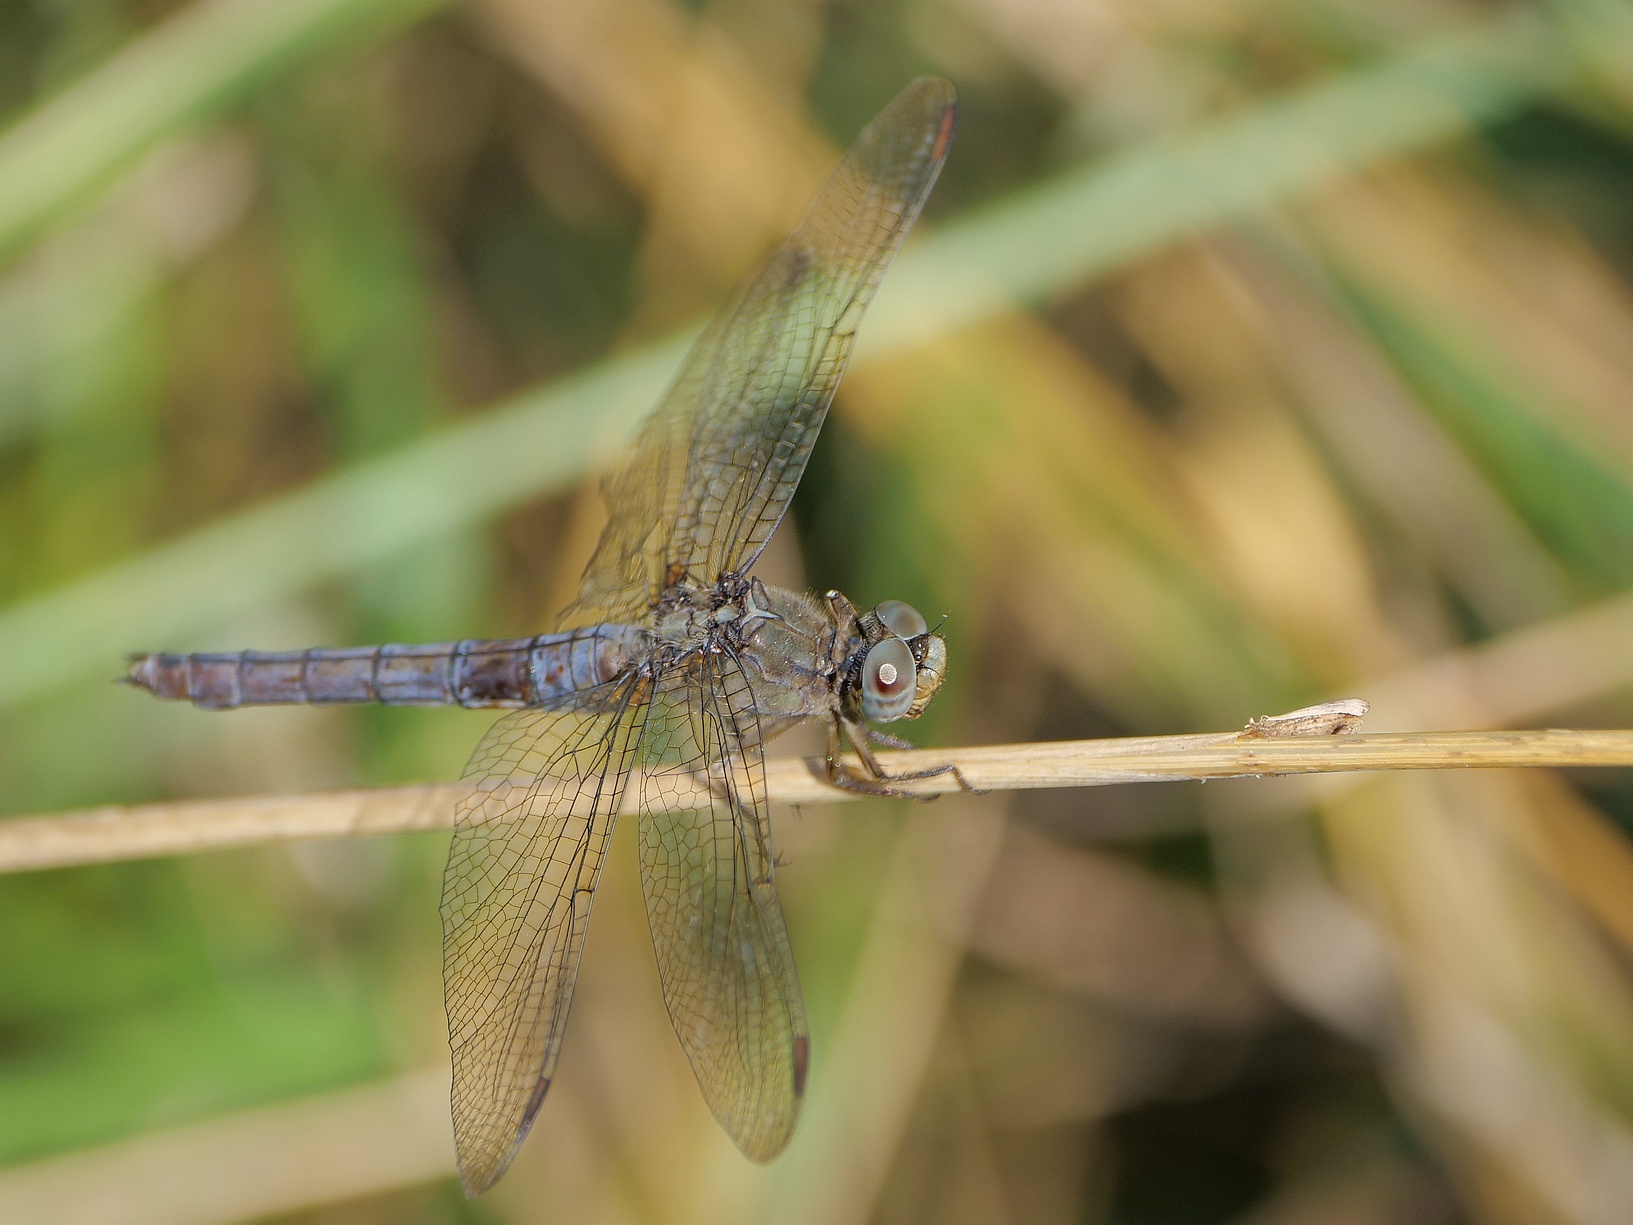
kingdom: Animalia
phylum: Arthropoda
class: Insecta
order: Odonata
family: Libellulidae
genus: Orthetrum
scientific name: Orthetrum coerulescens
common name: Keeled skimmer
